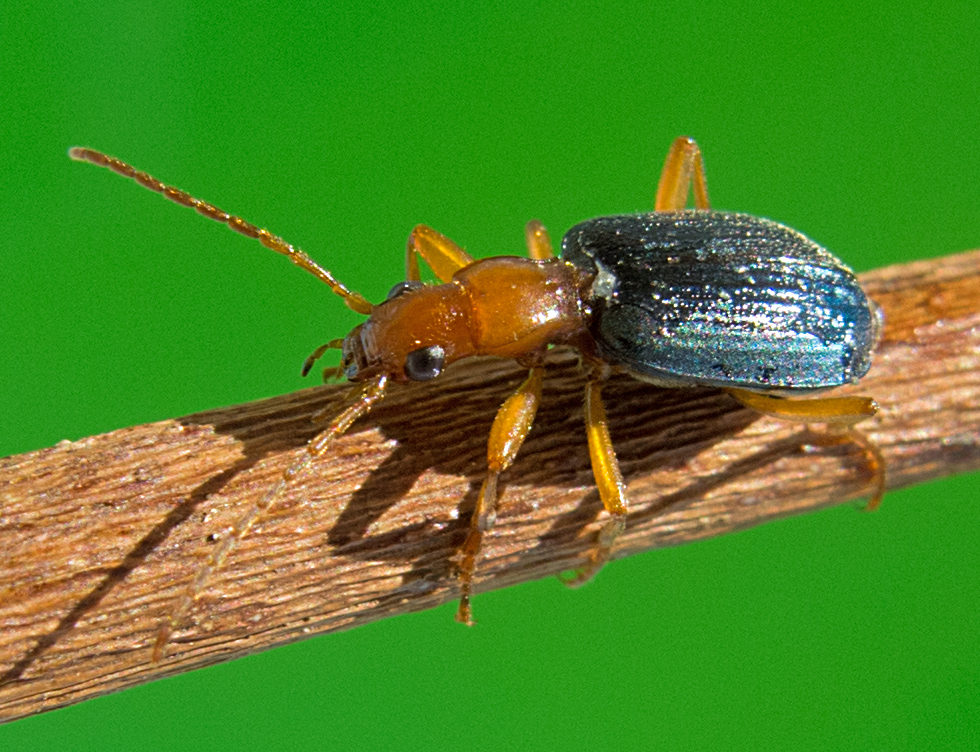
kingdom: Animalia
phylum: Arthropoda
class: Insecta
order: Coleoptera
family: Carabidae
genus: Brachinus
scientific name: Brachinus ejaculans
